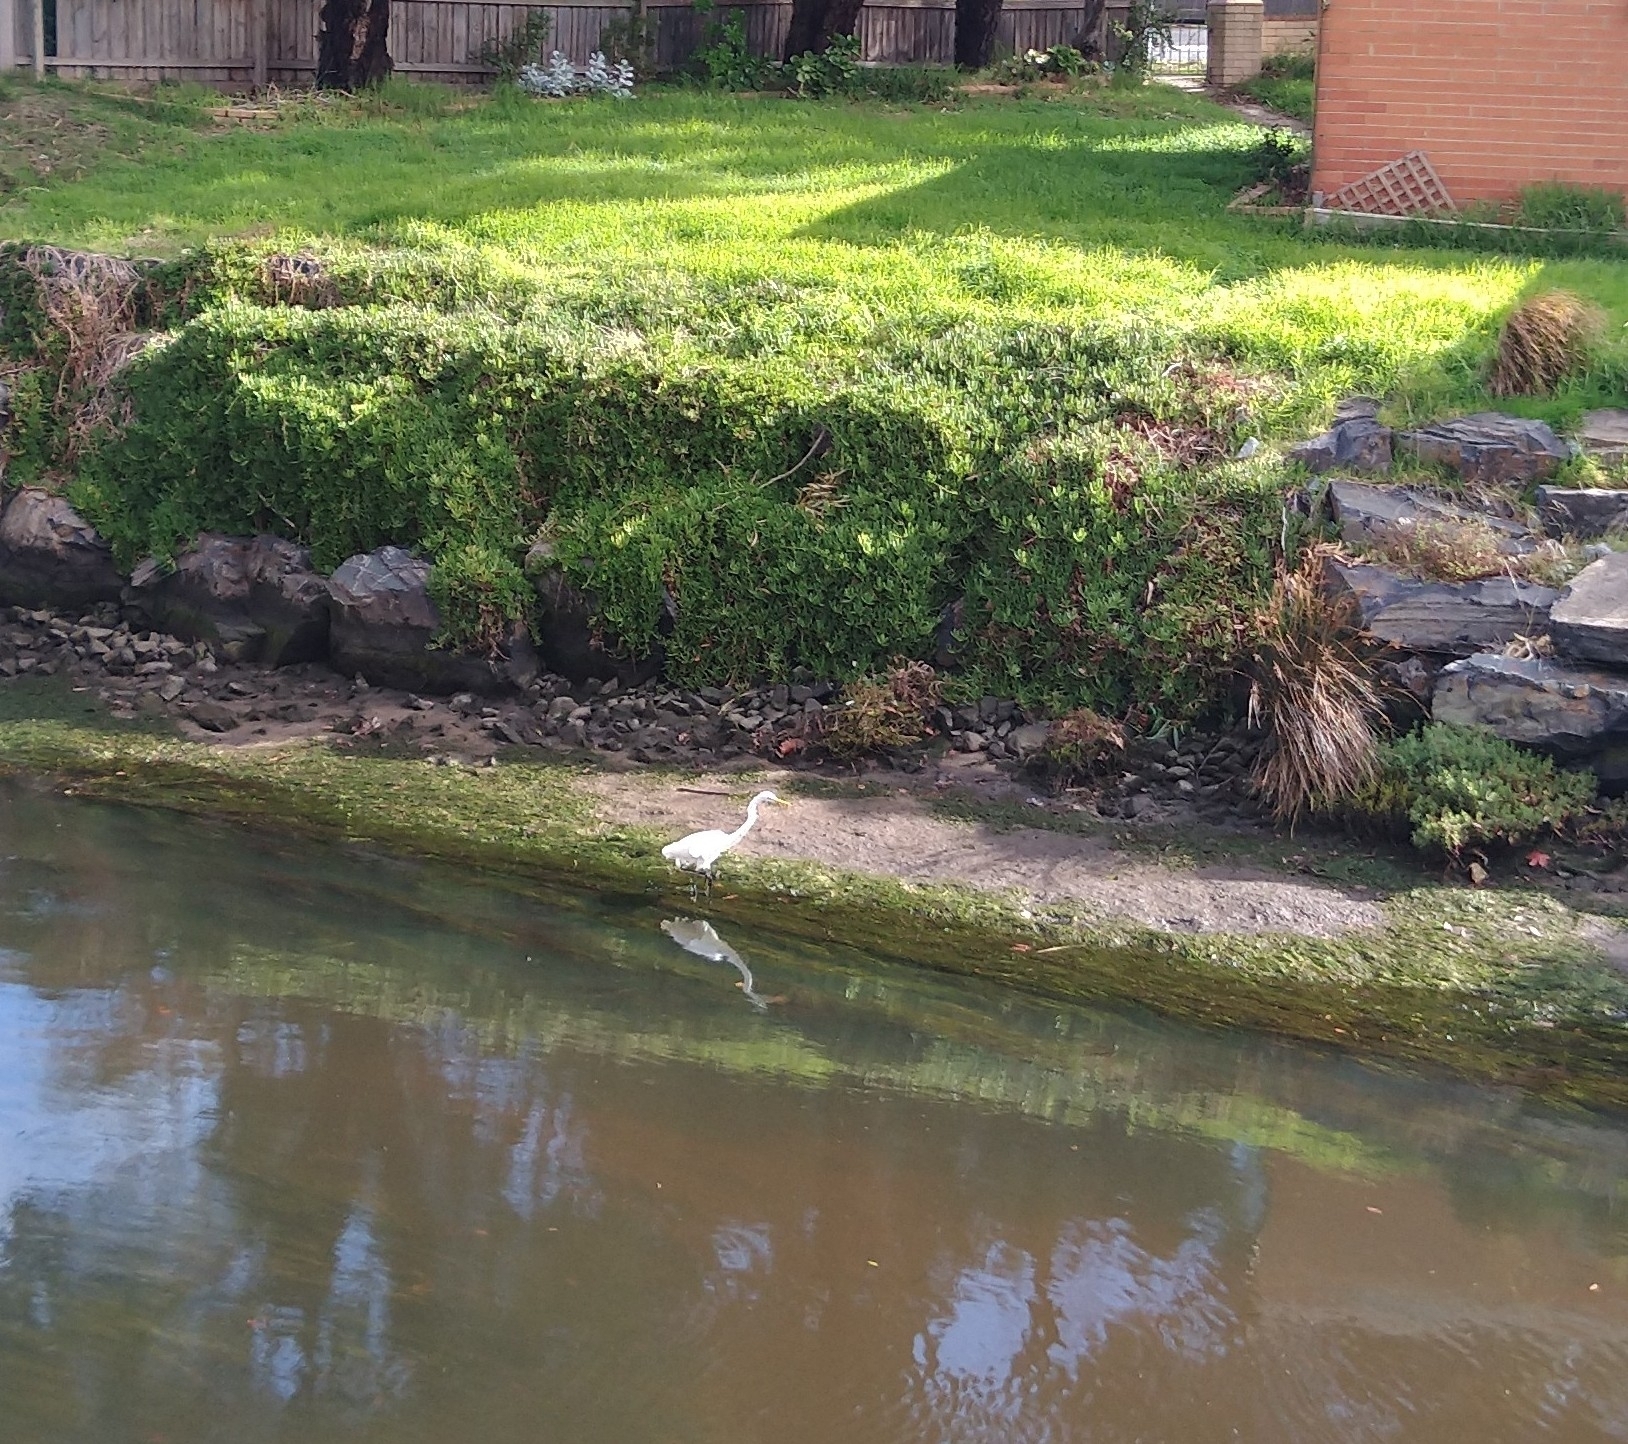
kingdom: Animalia
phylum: Chordata
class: Aves
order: Pelecaniformes
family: Ardeidae
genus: Ardea
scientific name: Ardea modesta
